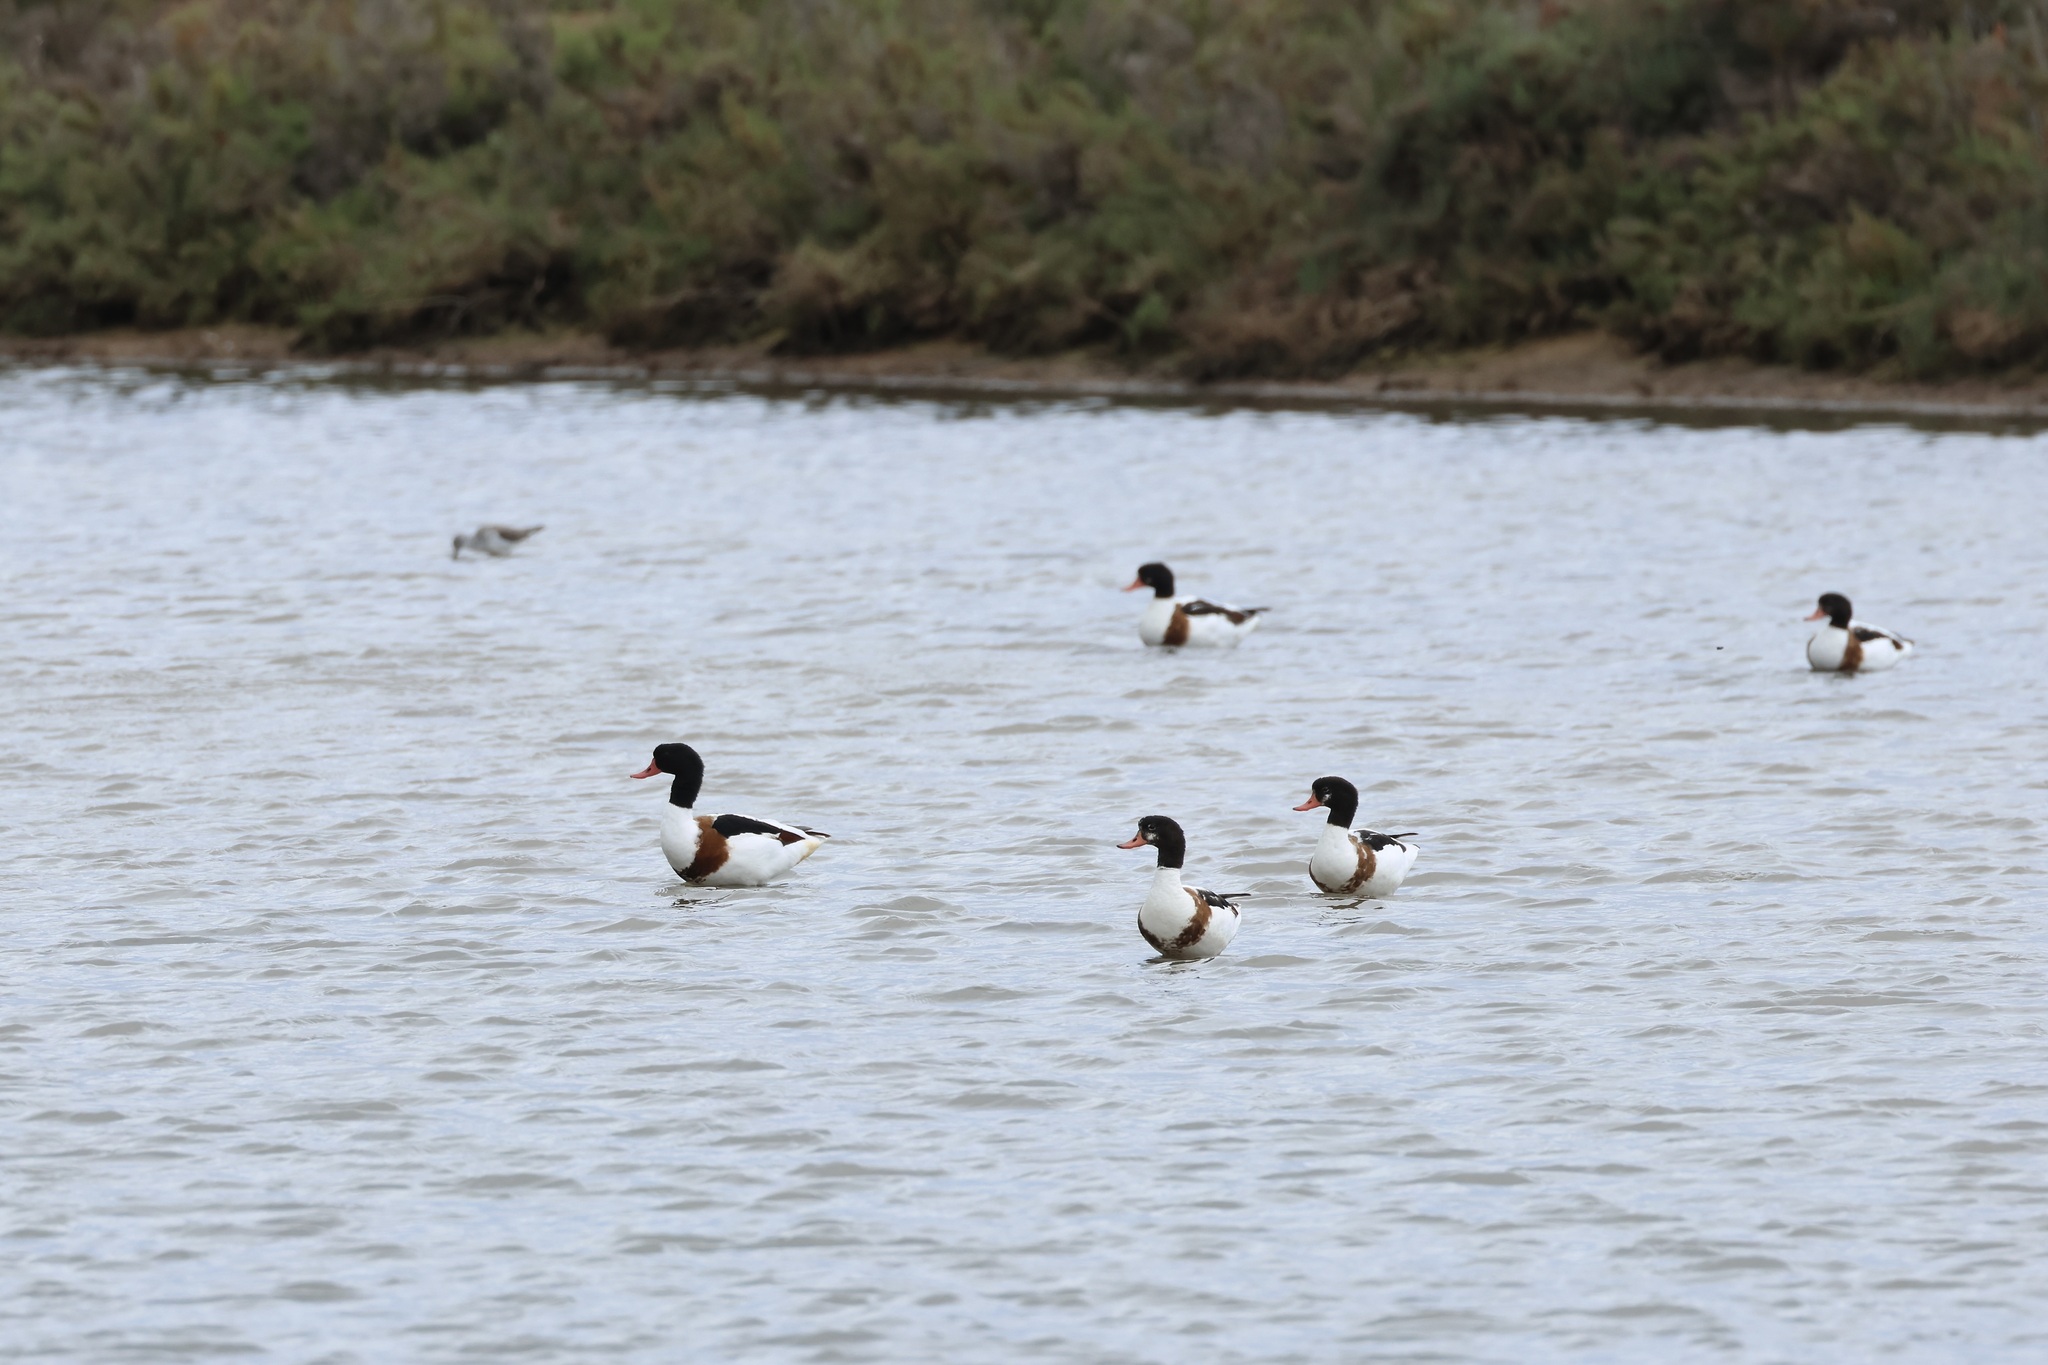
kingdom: Animalia
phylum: Chordata
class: Aves
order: Anseriformes
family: Anatidae
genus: Tadorna
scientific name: Tadorna tadorna
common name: Common shelduck
